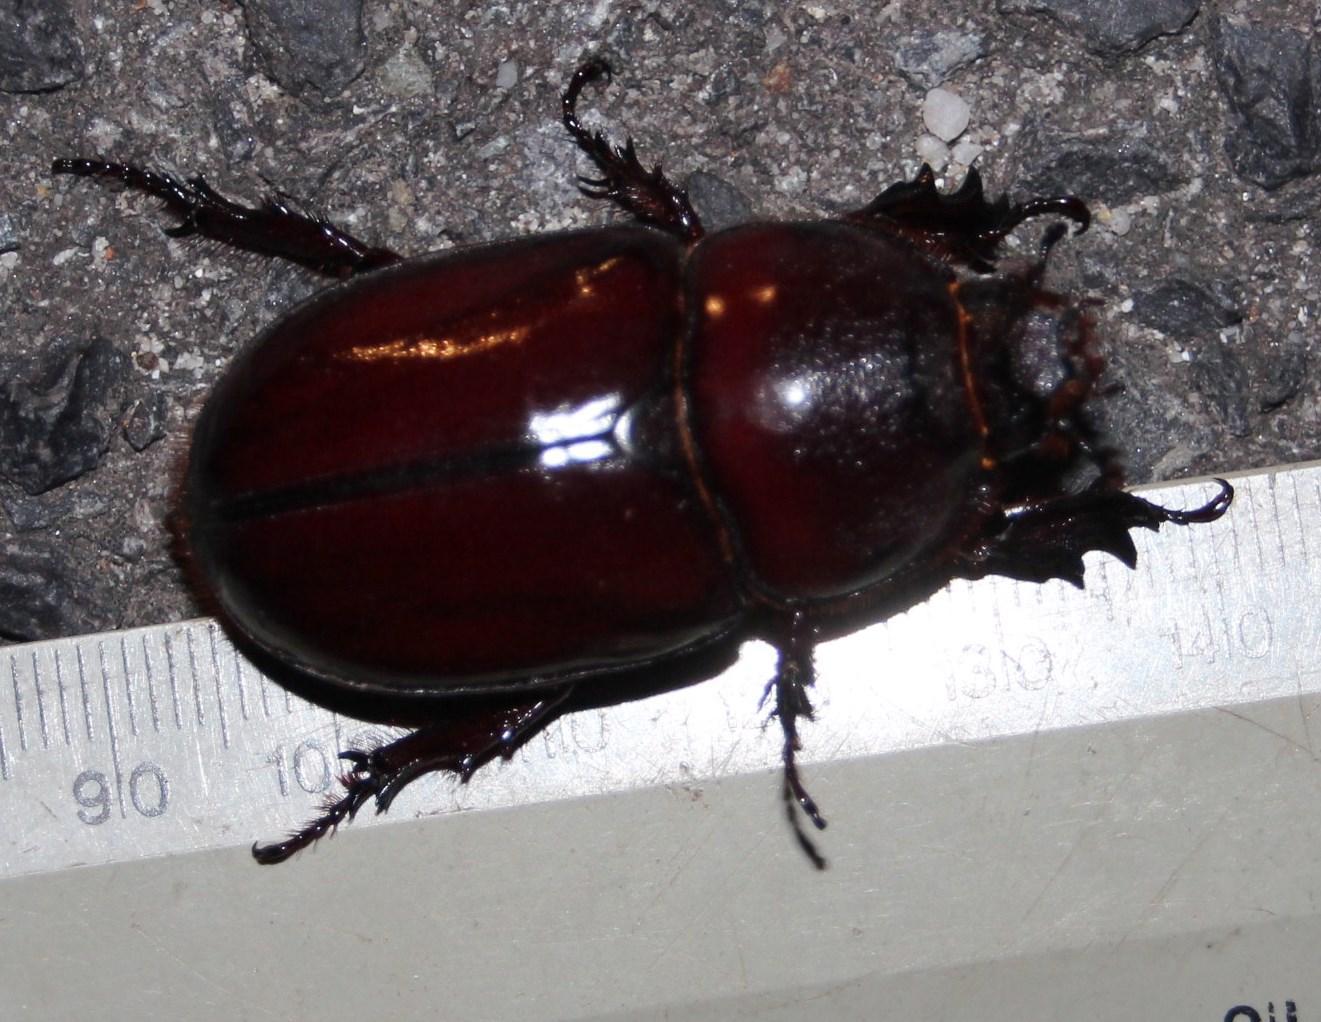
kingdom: Animalia
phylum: Arthropoda
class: Insecta
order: Coleoptera
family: Scarabaeidae
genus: Oryctes
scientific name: Oryctes boas
